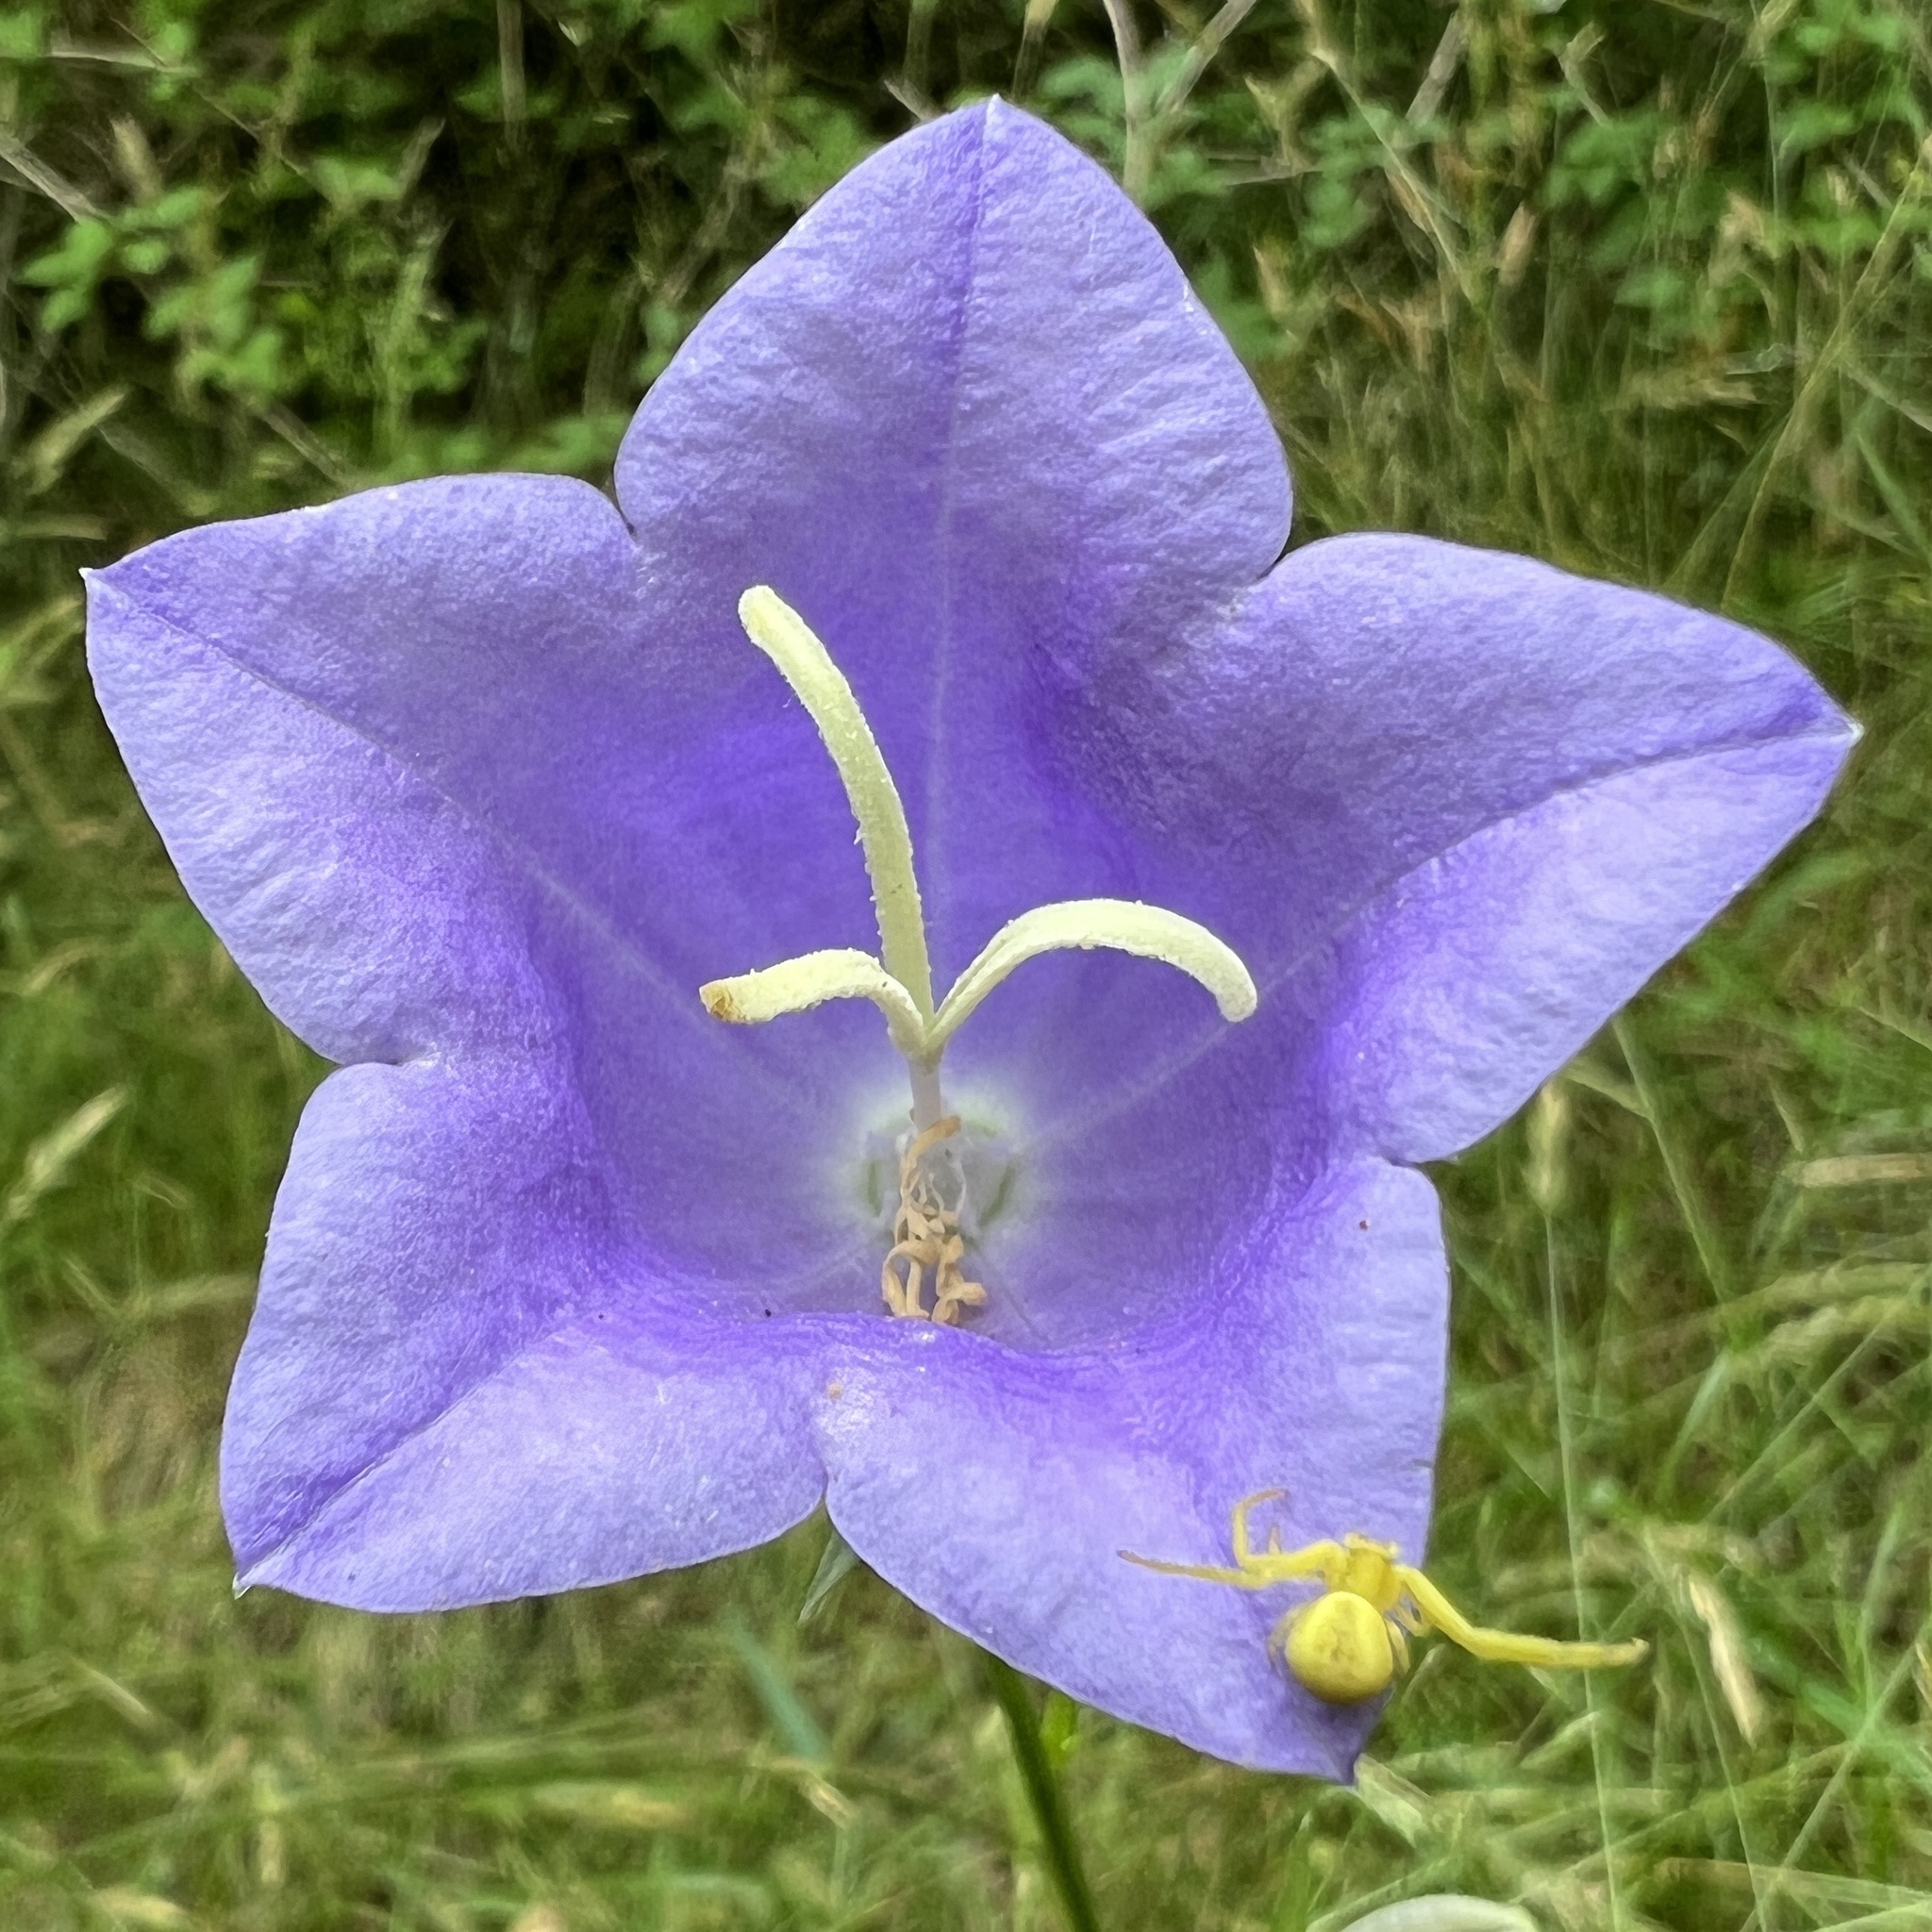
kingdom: Plantae
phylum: Tracheophyta
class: Magnoliopsida
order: Asterales
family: Campanulaceae
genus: Campanula
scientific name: Campanula persicifolia
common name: Peach-leaved bellflower
